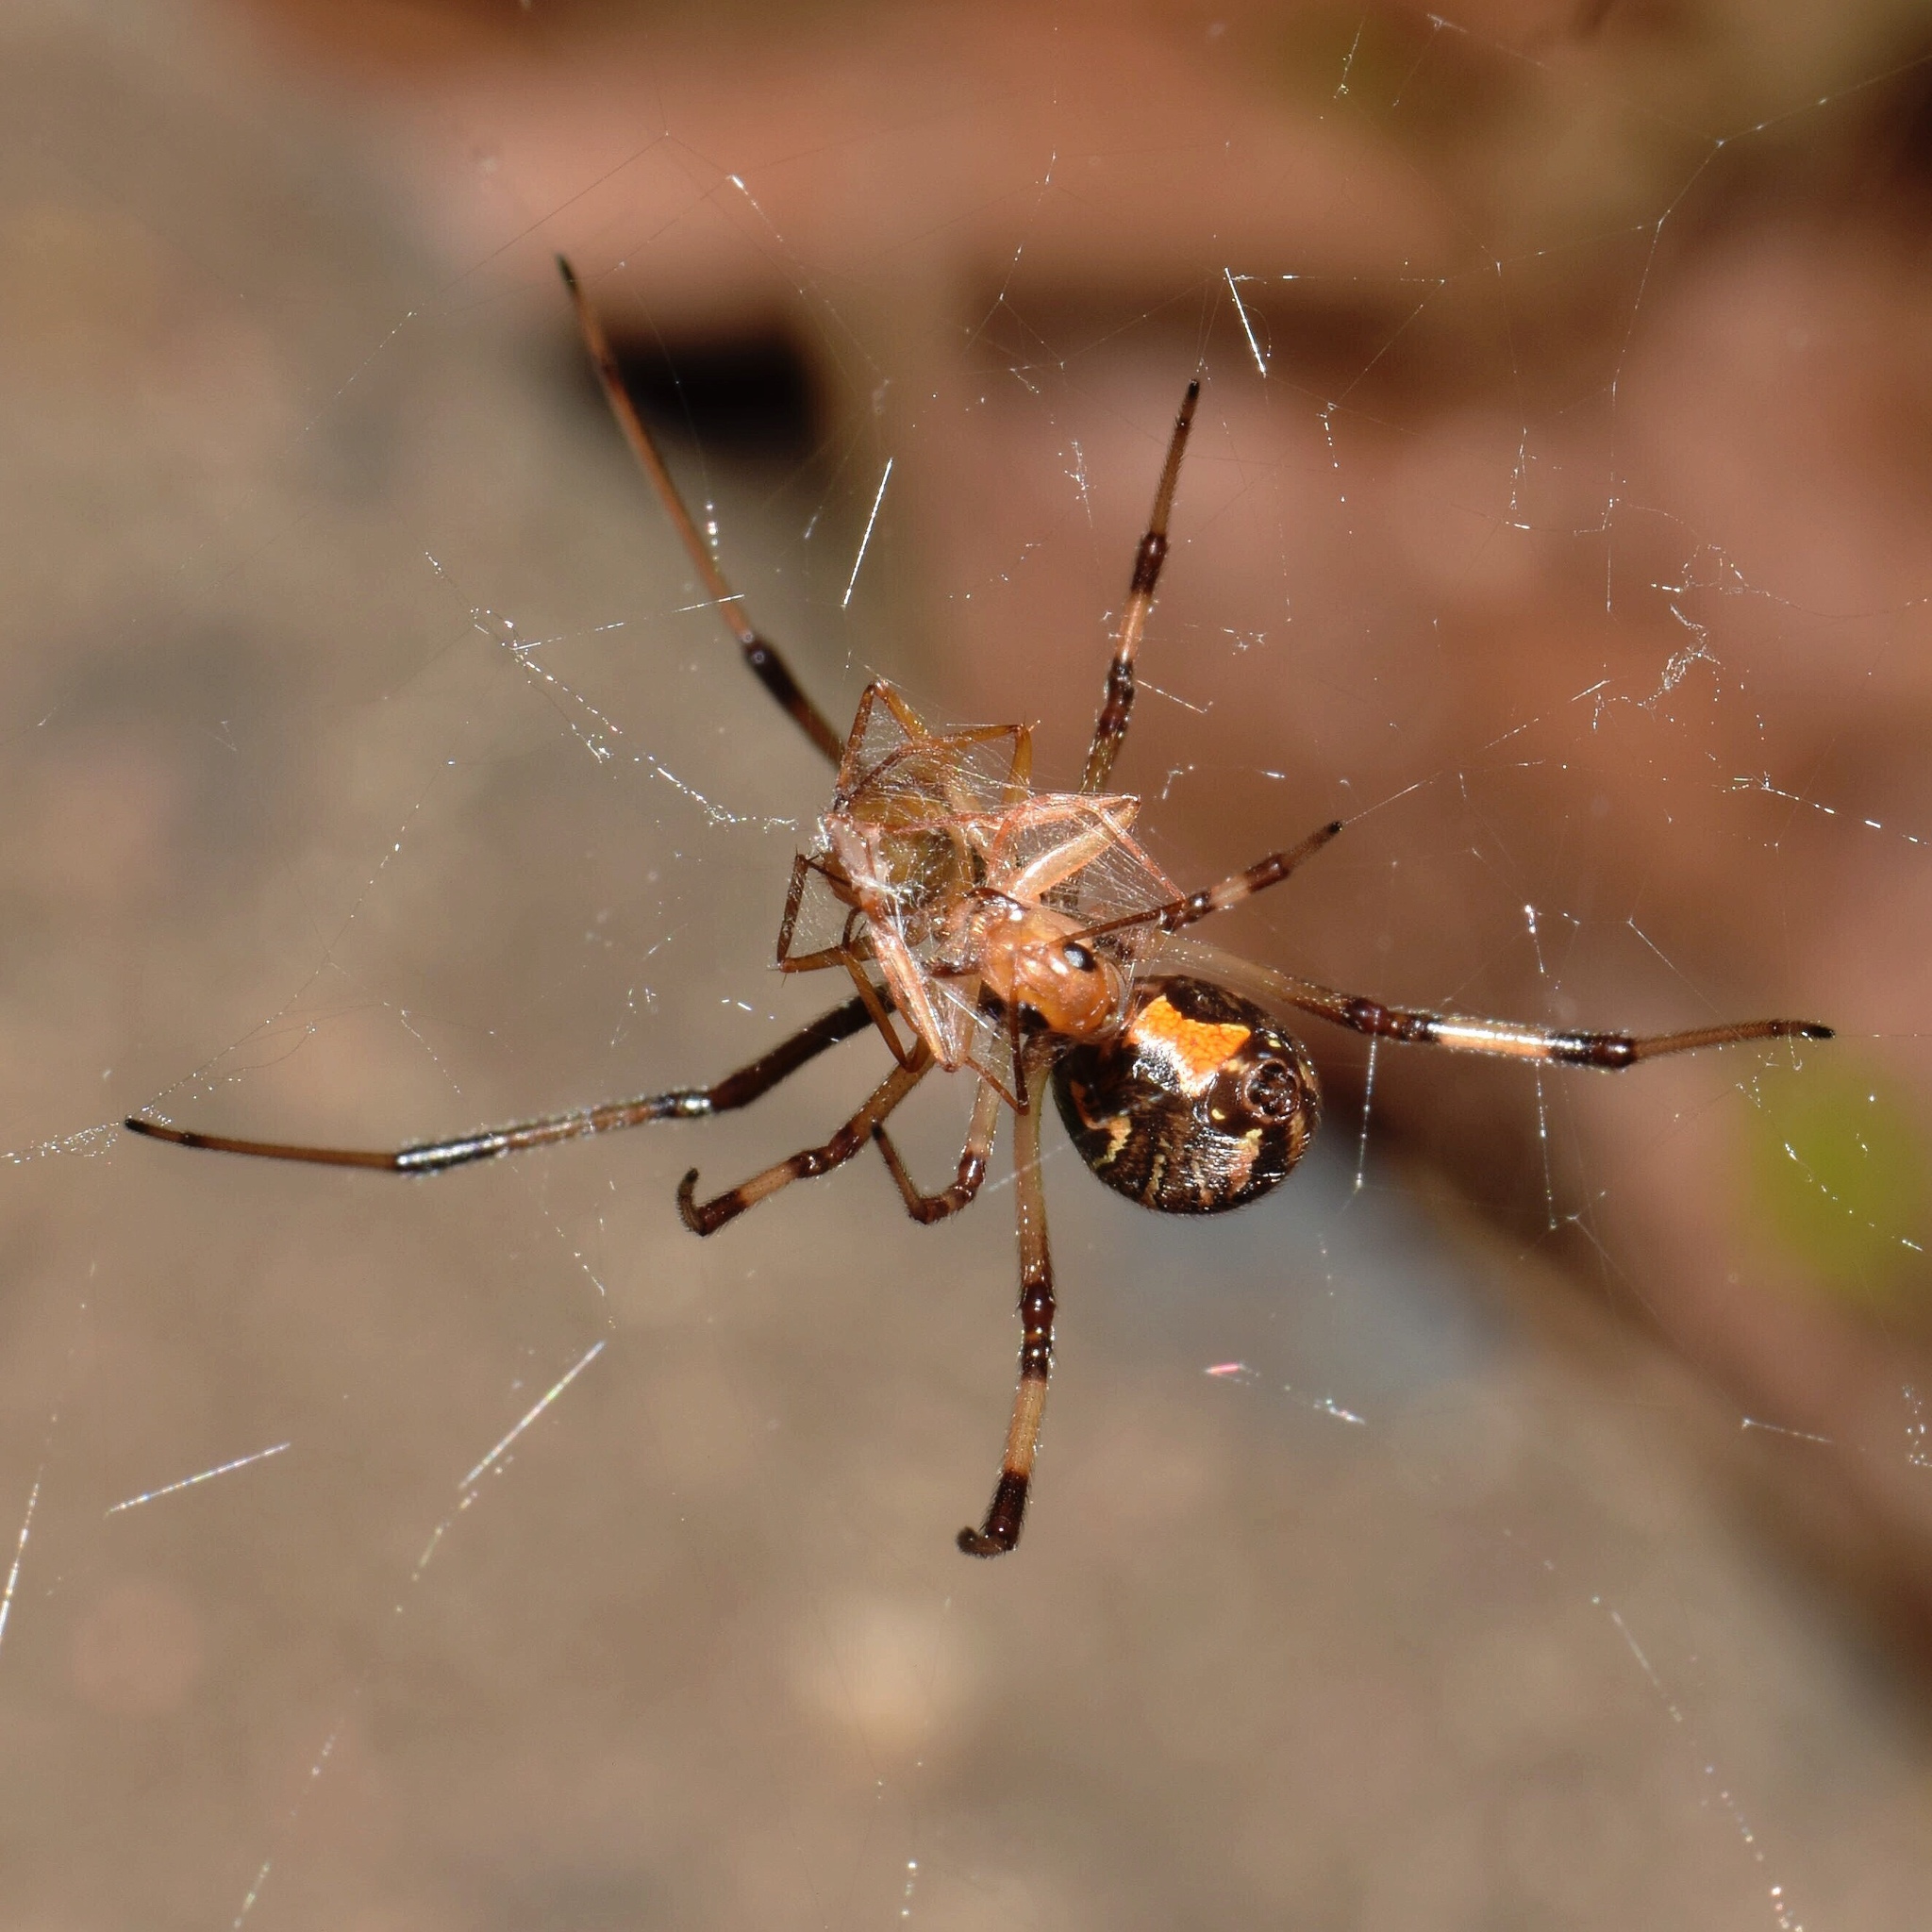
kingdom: Animalia
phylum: Arthropoda
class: Arachnida
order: Araneae
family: Theridiidae
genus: Latrodectus
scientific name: Latrodectus geometricus
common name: Brown widow spider
